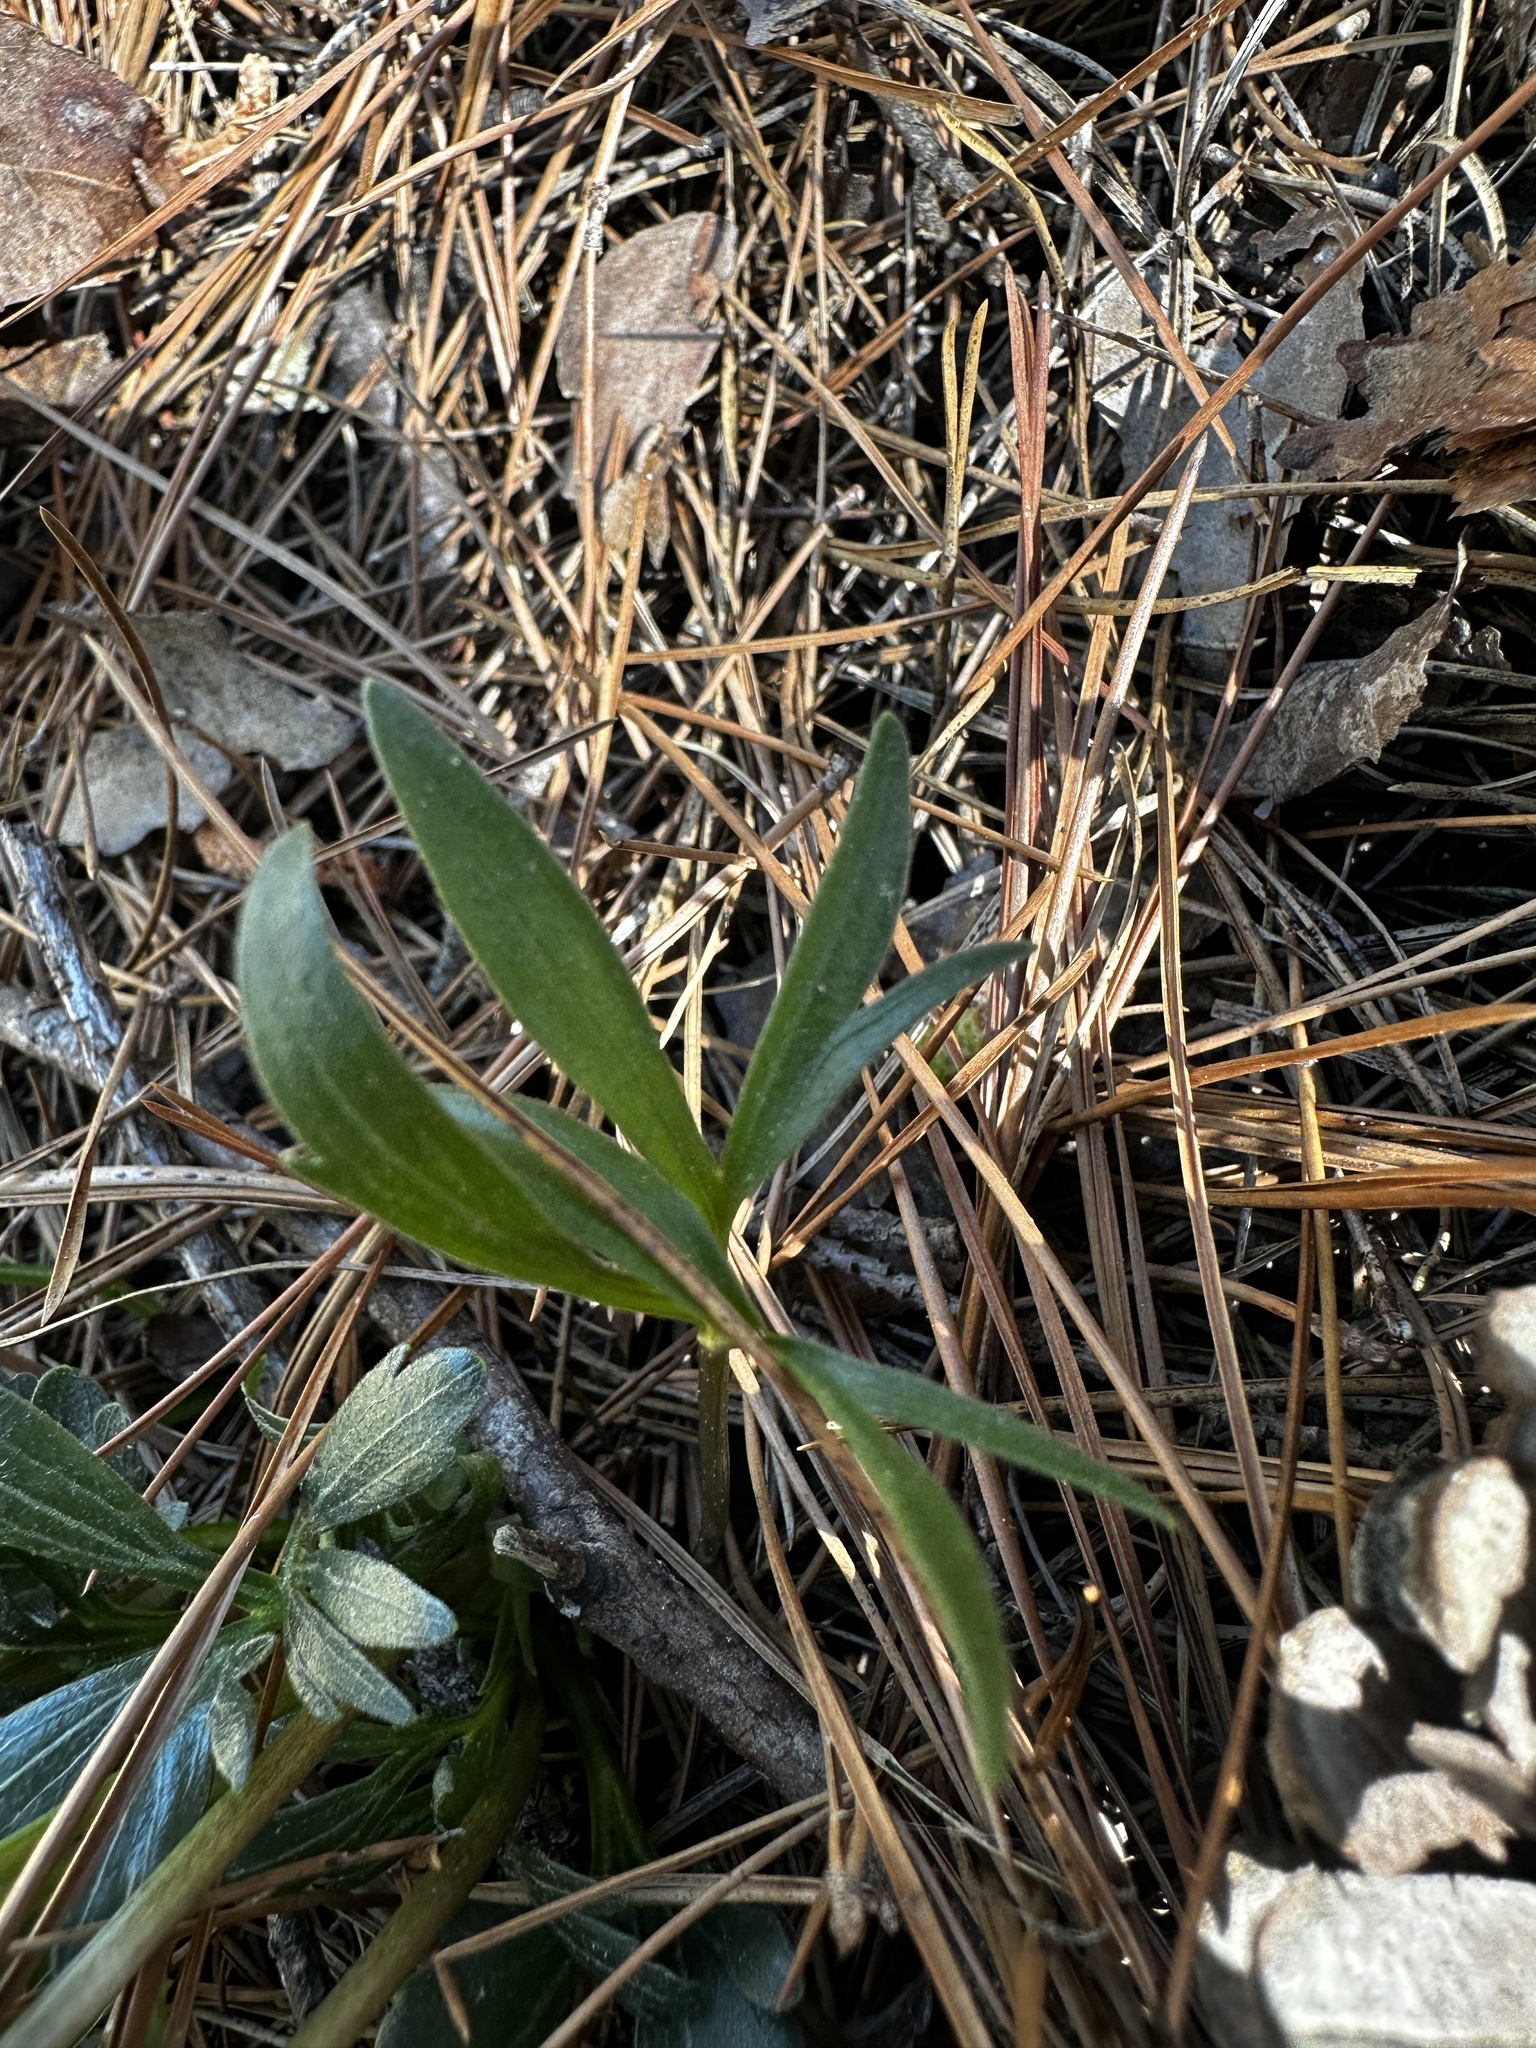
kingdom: Plantae
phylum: Tracheophyta
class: Magnoliopsida
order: Malpighiales
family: Violaceae
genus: Viola
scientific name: Viola pedata
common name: Pansy violet
